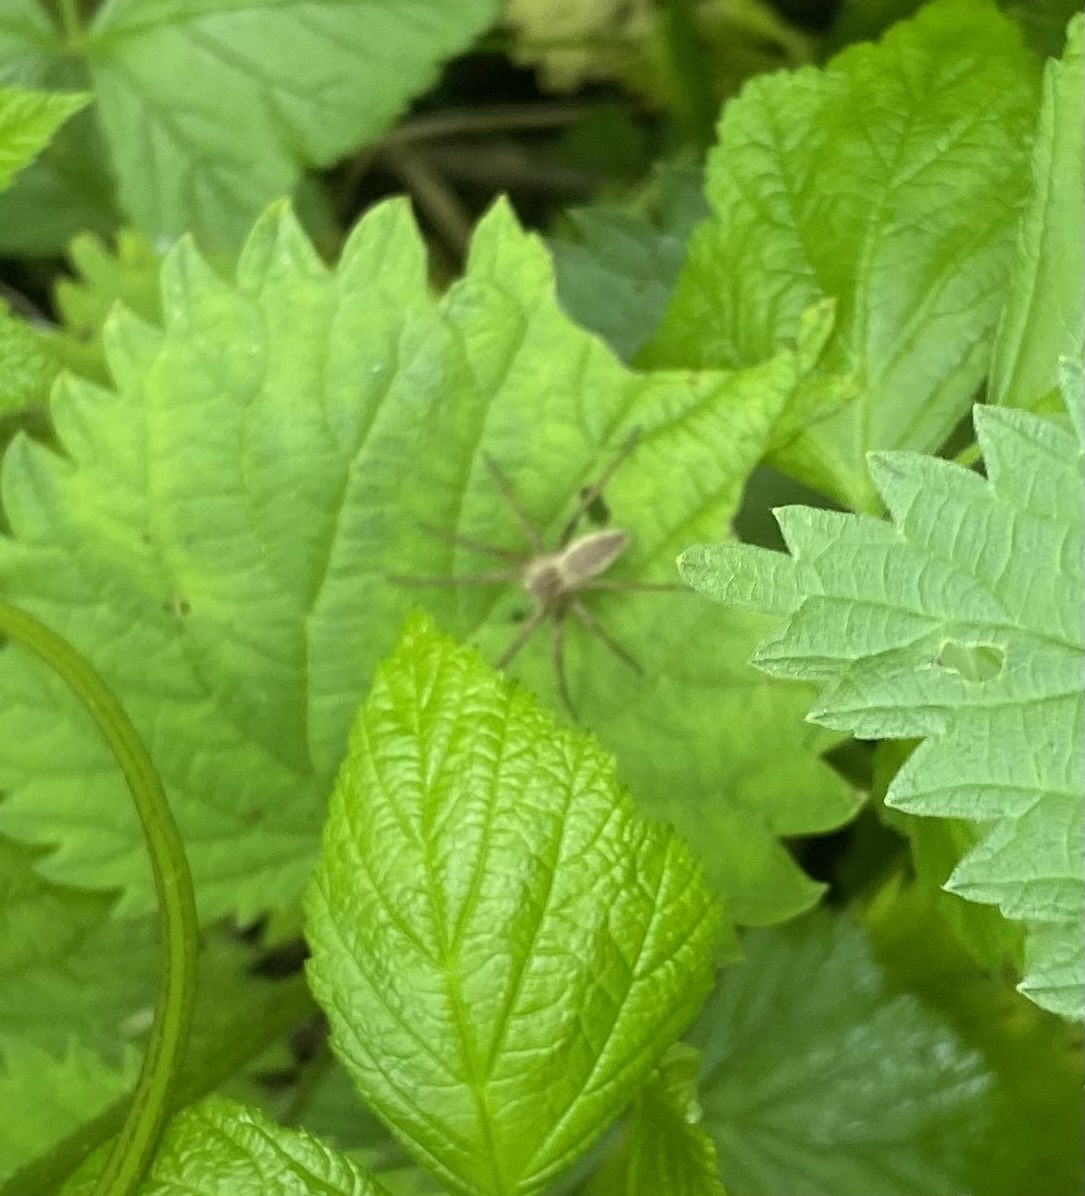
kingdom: Animalia
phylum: Arthropoda
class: Arachnida
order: Araneae
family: Pisauridae
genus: Pisaura
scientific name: Pisaura
